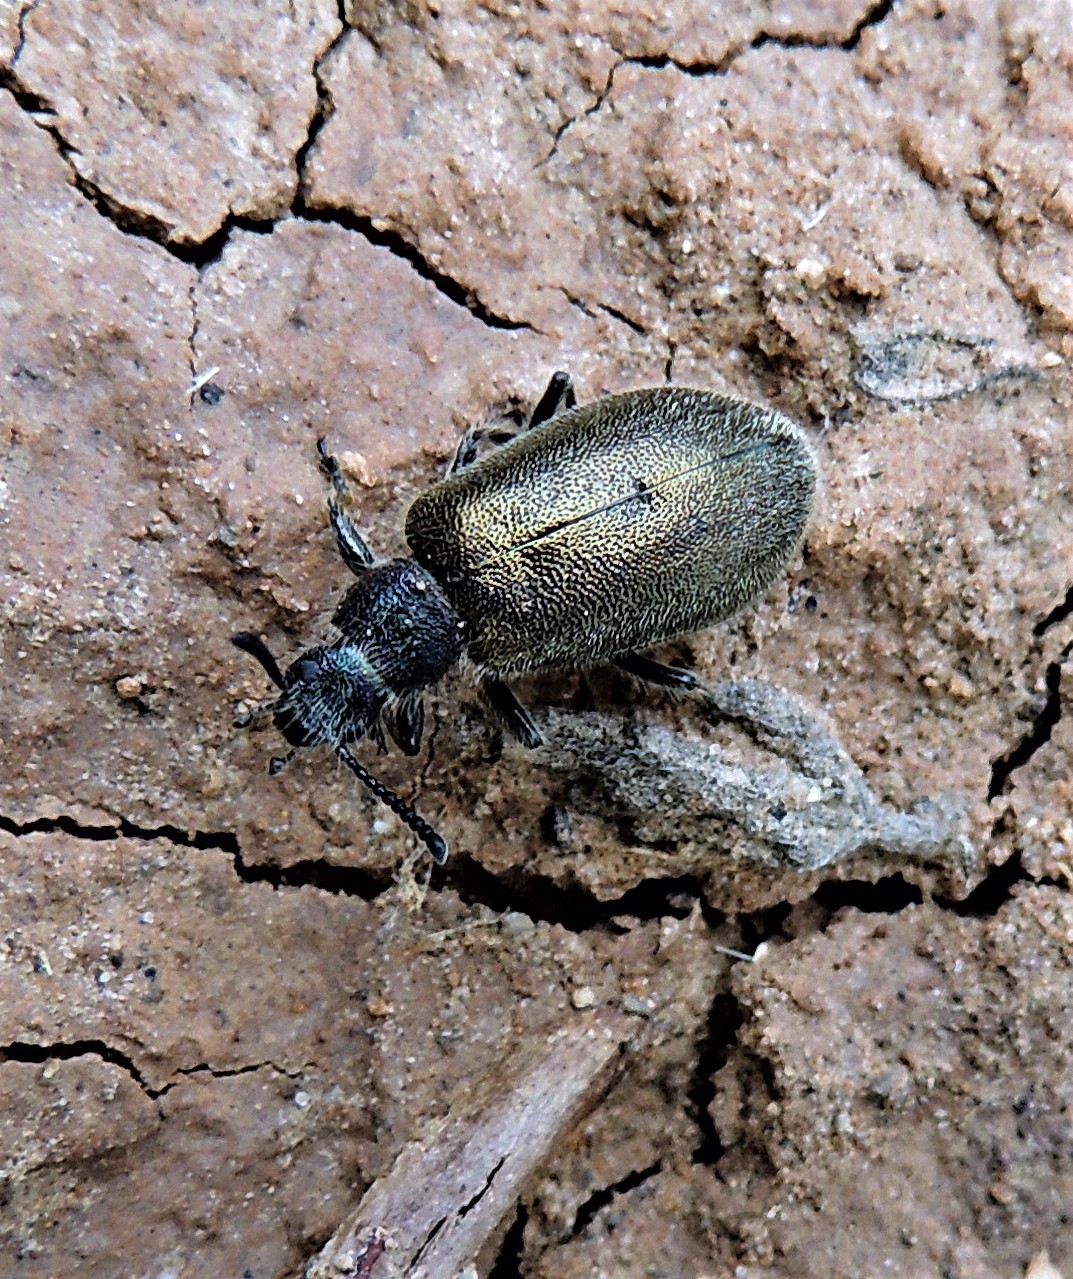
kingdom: Animalia
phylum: Arthropoda
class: Insecta
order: Coleoptera
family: Tenebrionidae
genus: Lagria
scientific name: Lagria villosa
